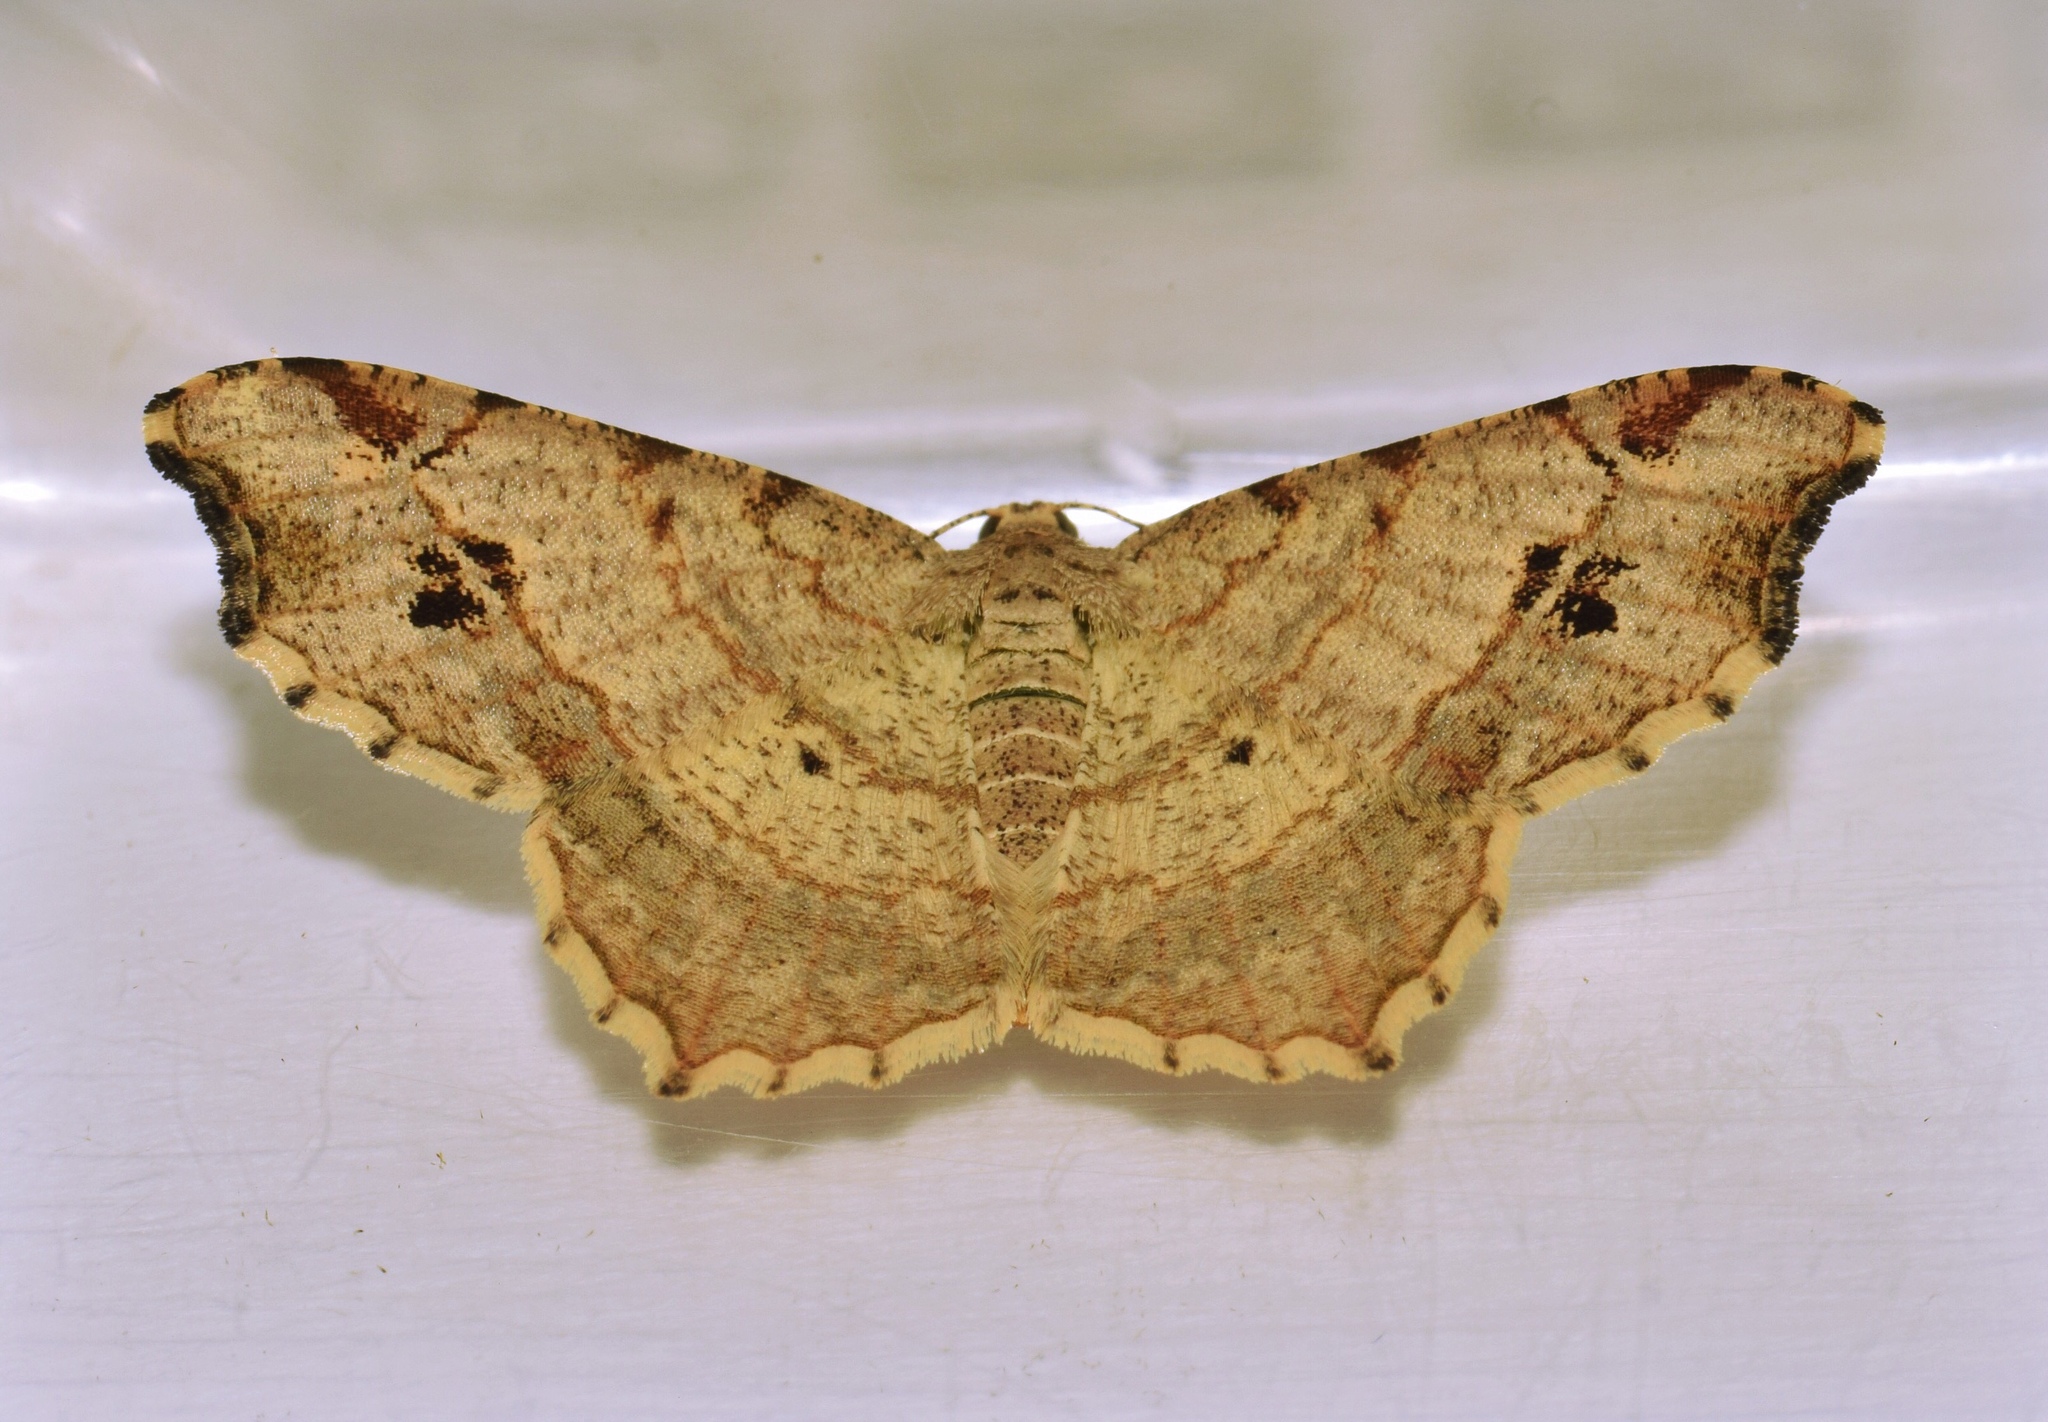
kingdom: Animalia
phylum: Arthropoda
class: Insecta
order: Lepidoptera
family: Geometridae
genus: Chiasmia
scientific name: Chiasmia natalensis
